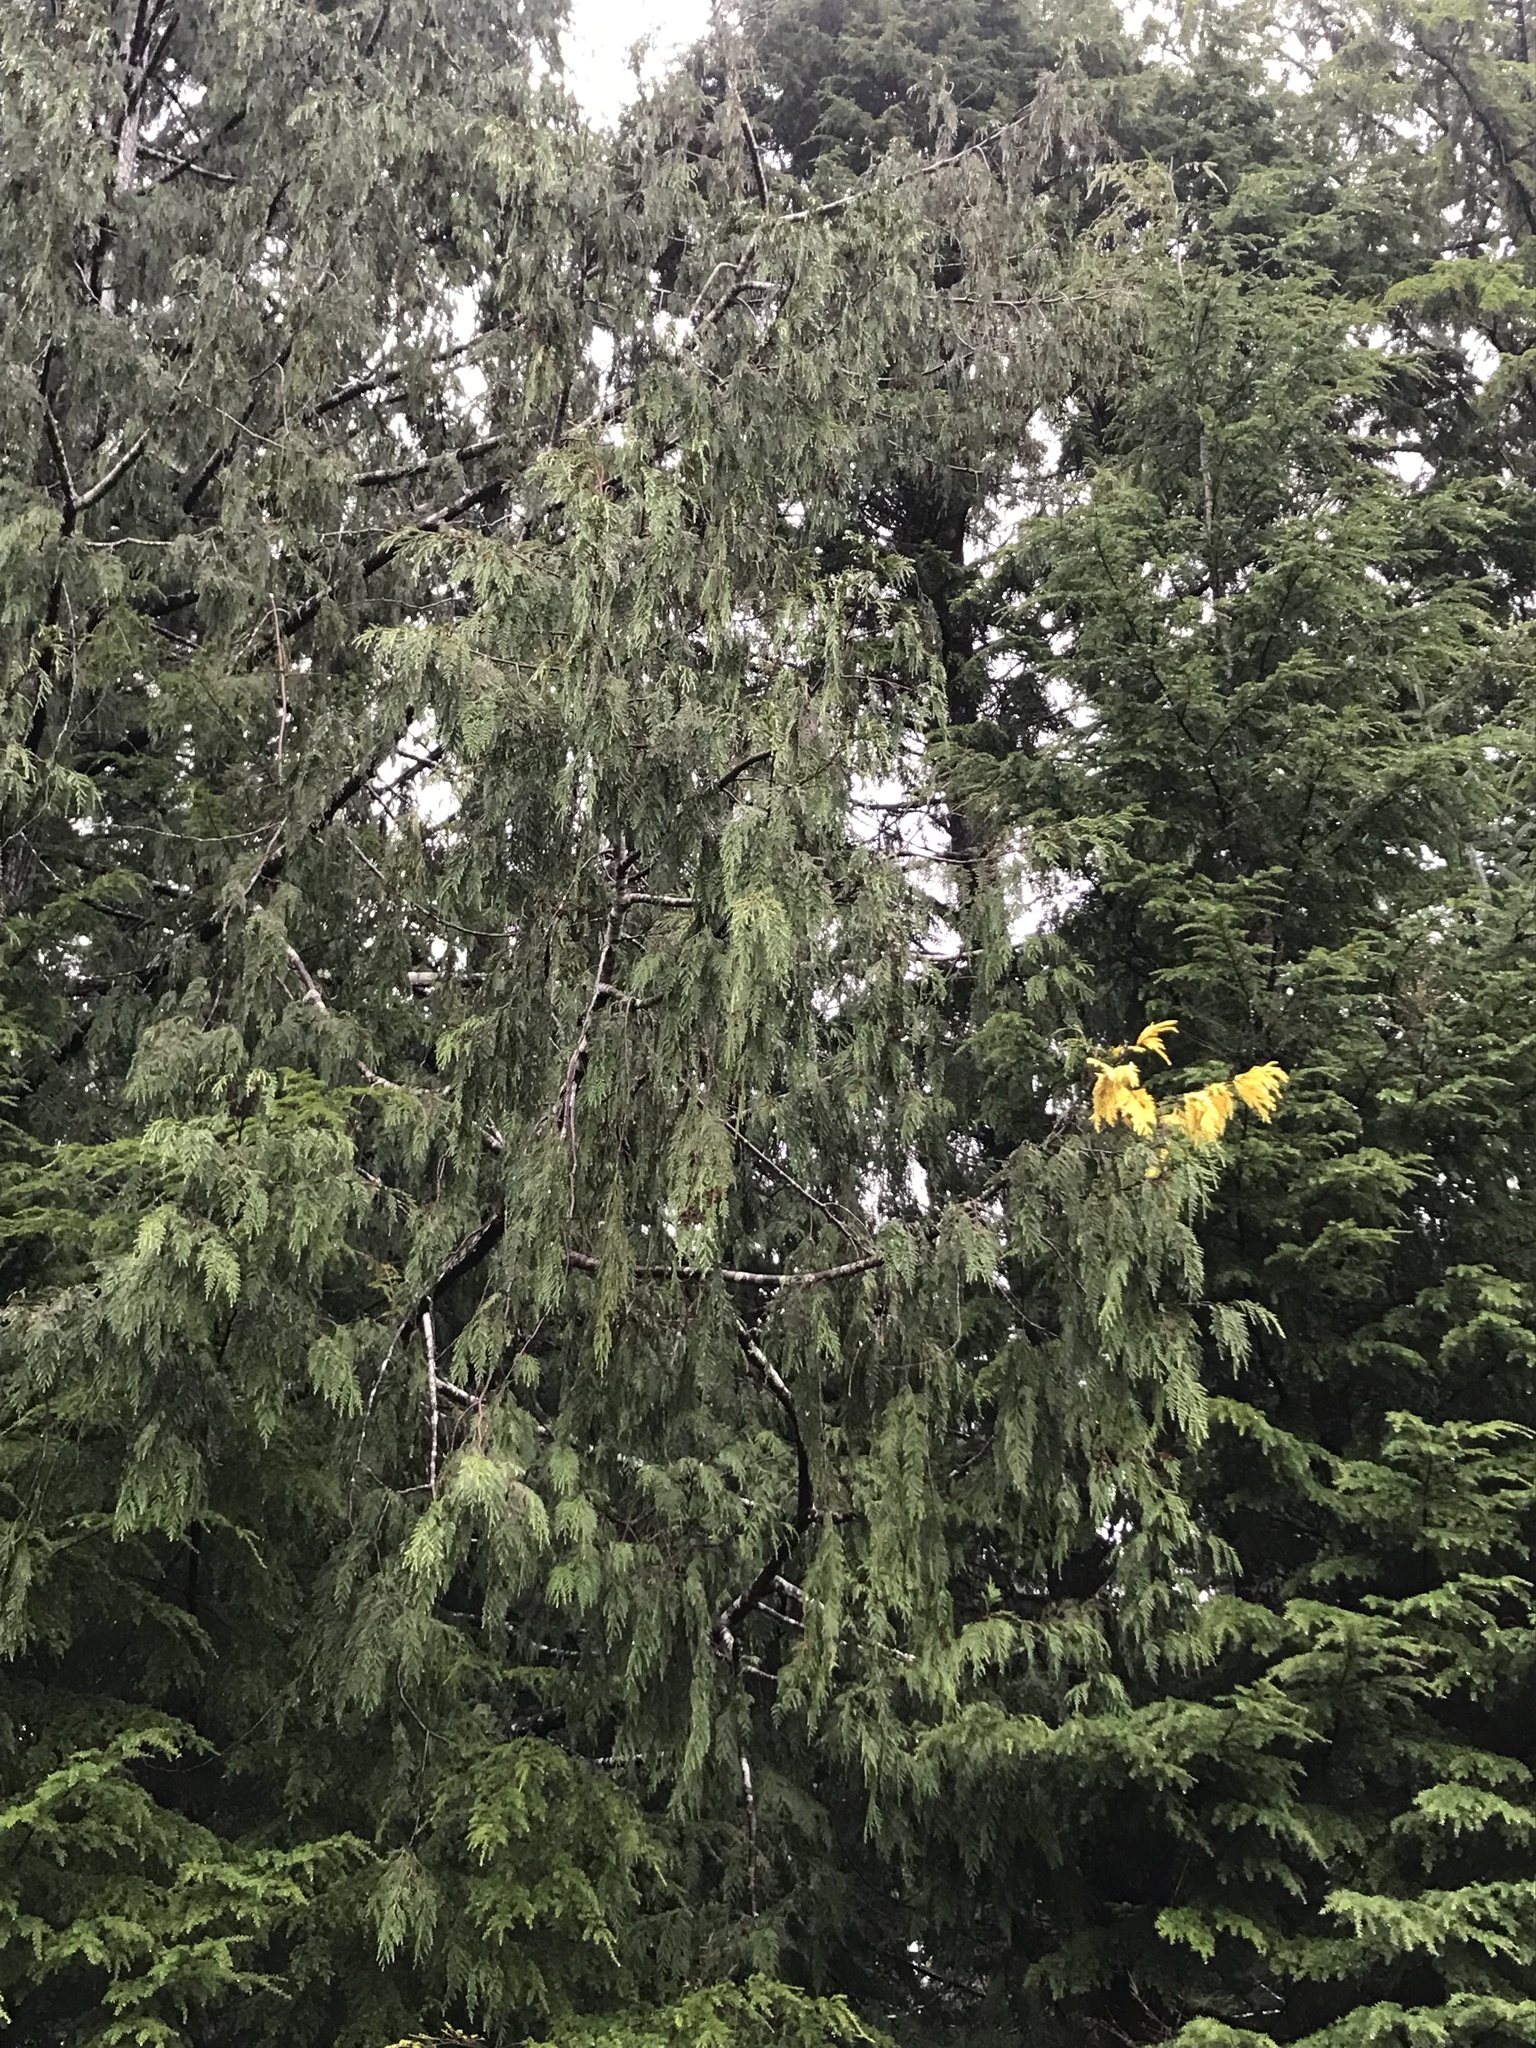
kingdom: Plantae
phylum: Tracheophyta
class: Pinopsida
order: Pinales
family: Cupressaceae
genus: Thuja
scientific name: Thuja plicata
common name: Western red-cedar
